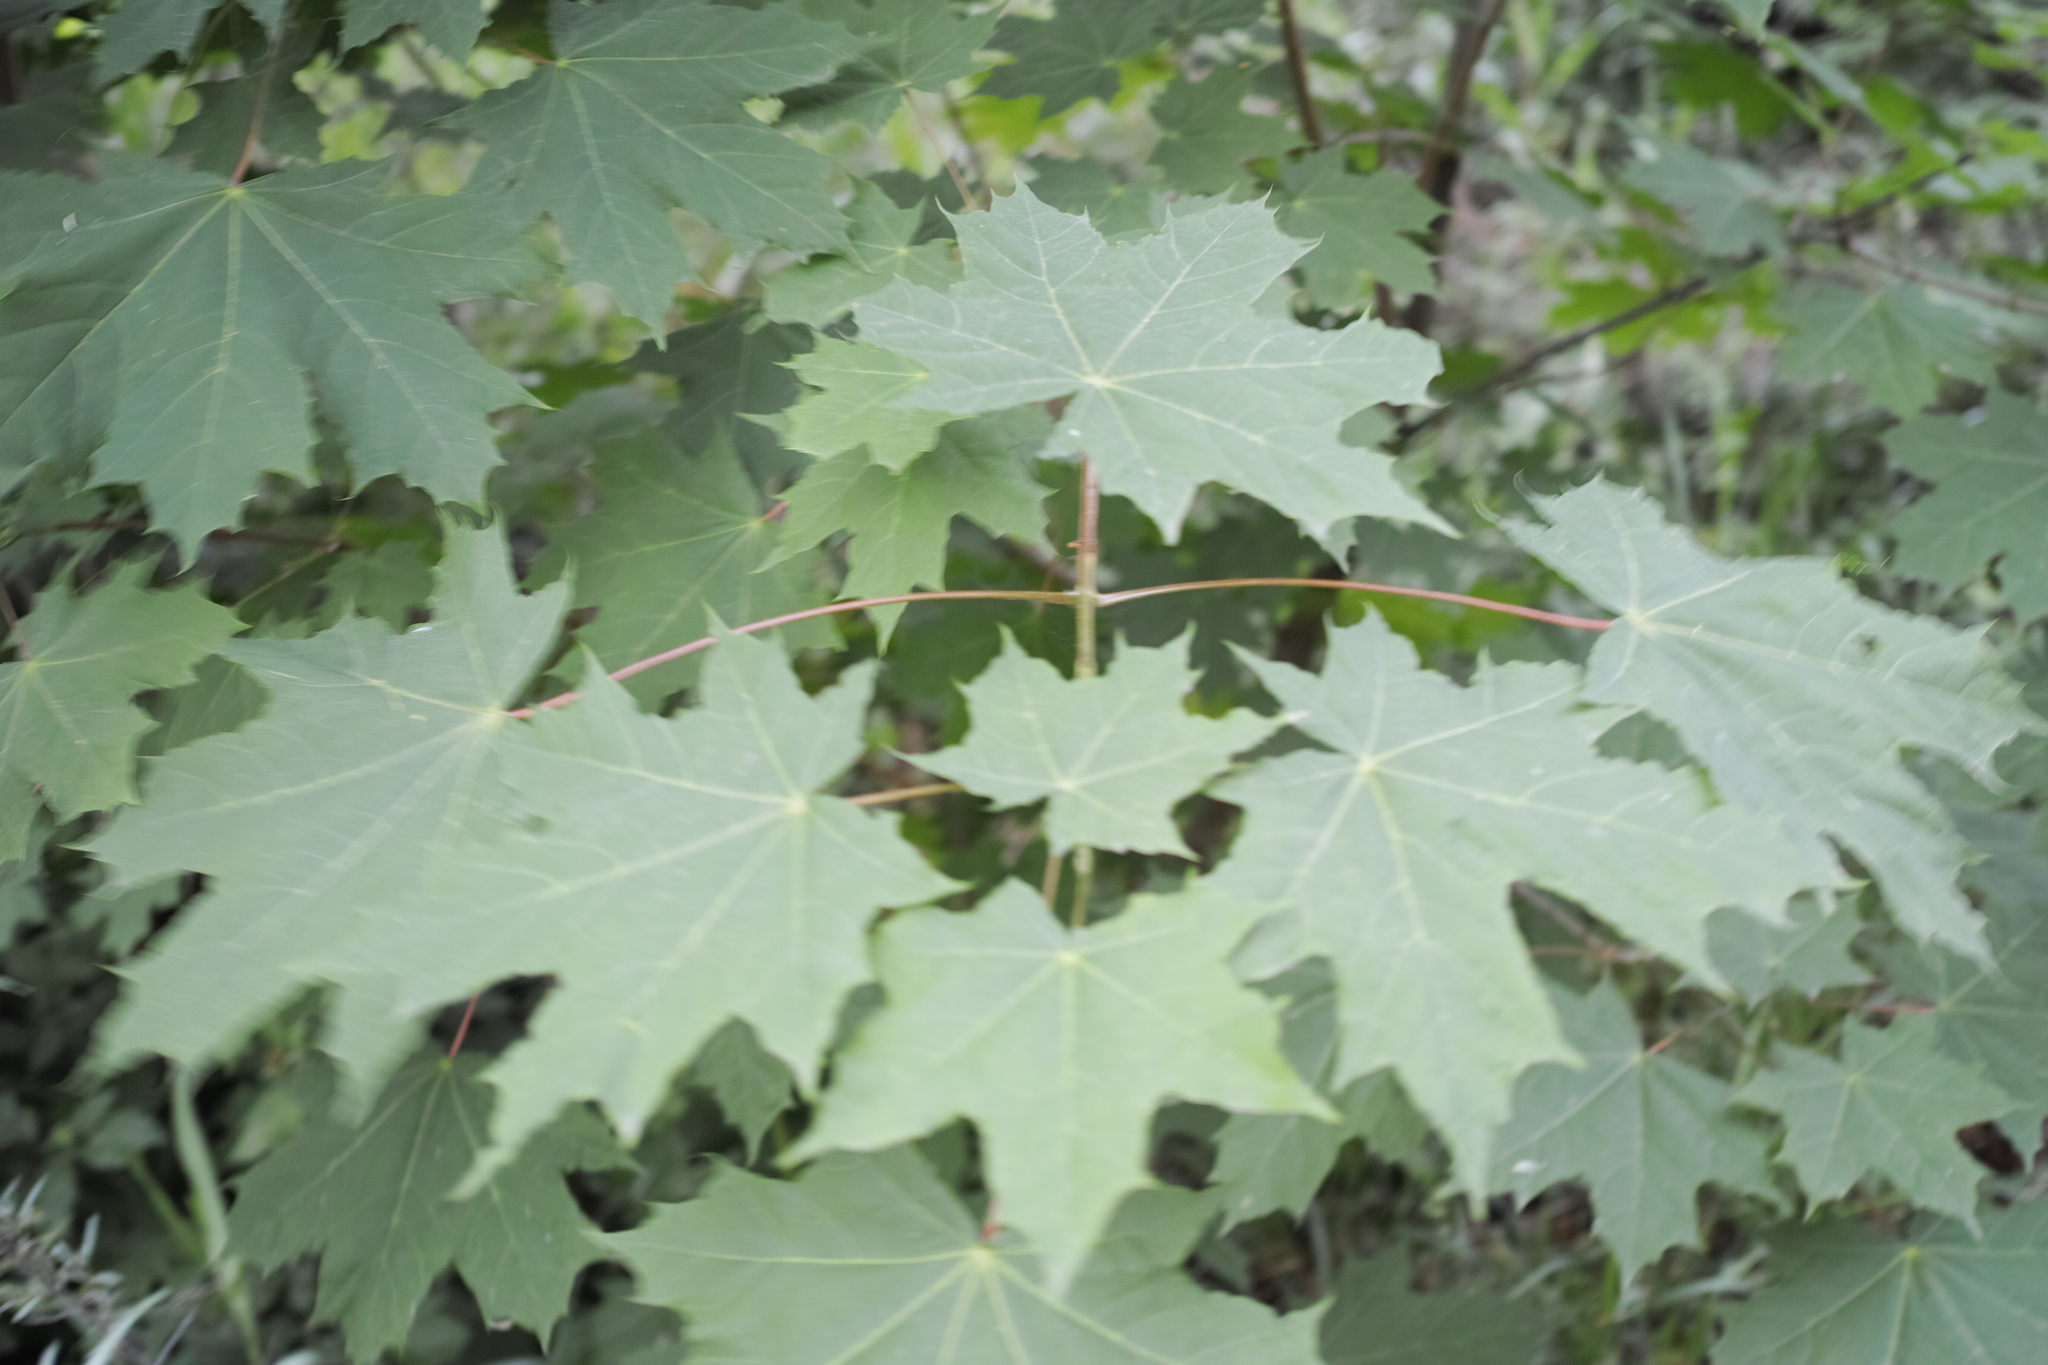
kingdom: Plantae
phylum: Tracheophyta
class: Magnoliopsida
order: Sapindales
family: Sapindaceae
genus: Acer
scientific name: Acer platanoides
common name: Norway maple
